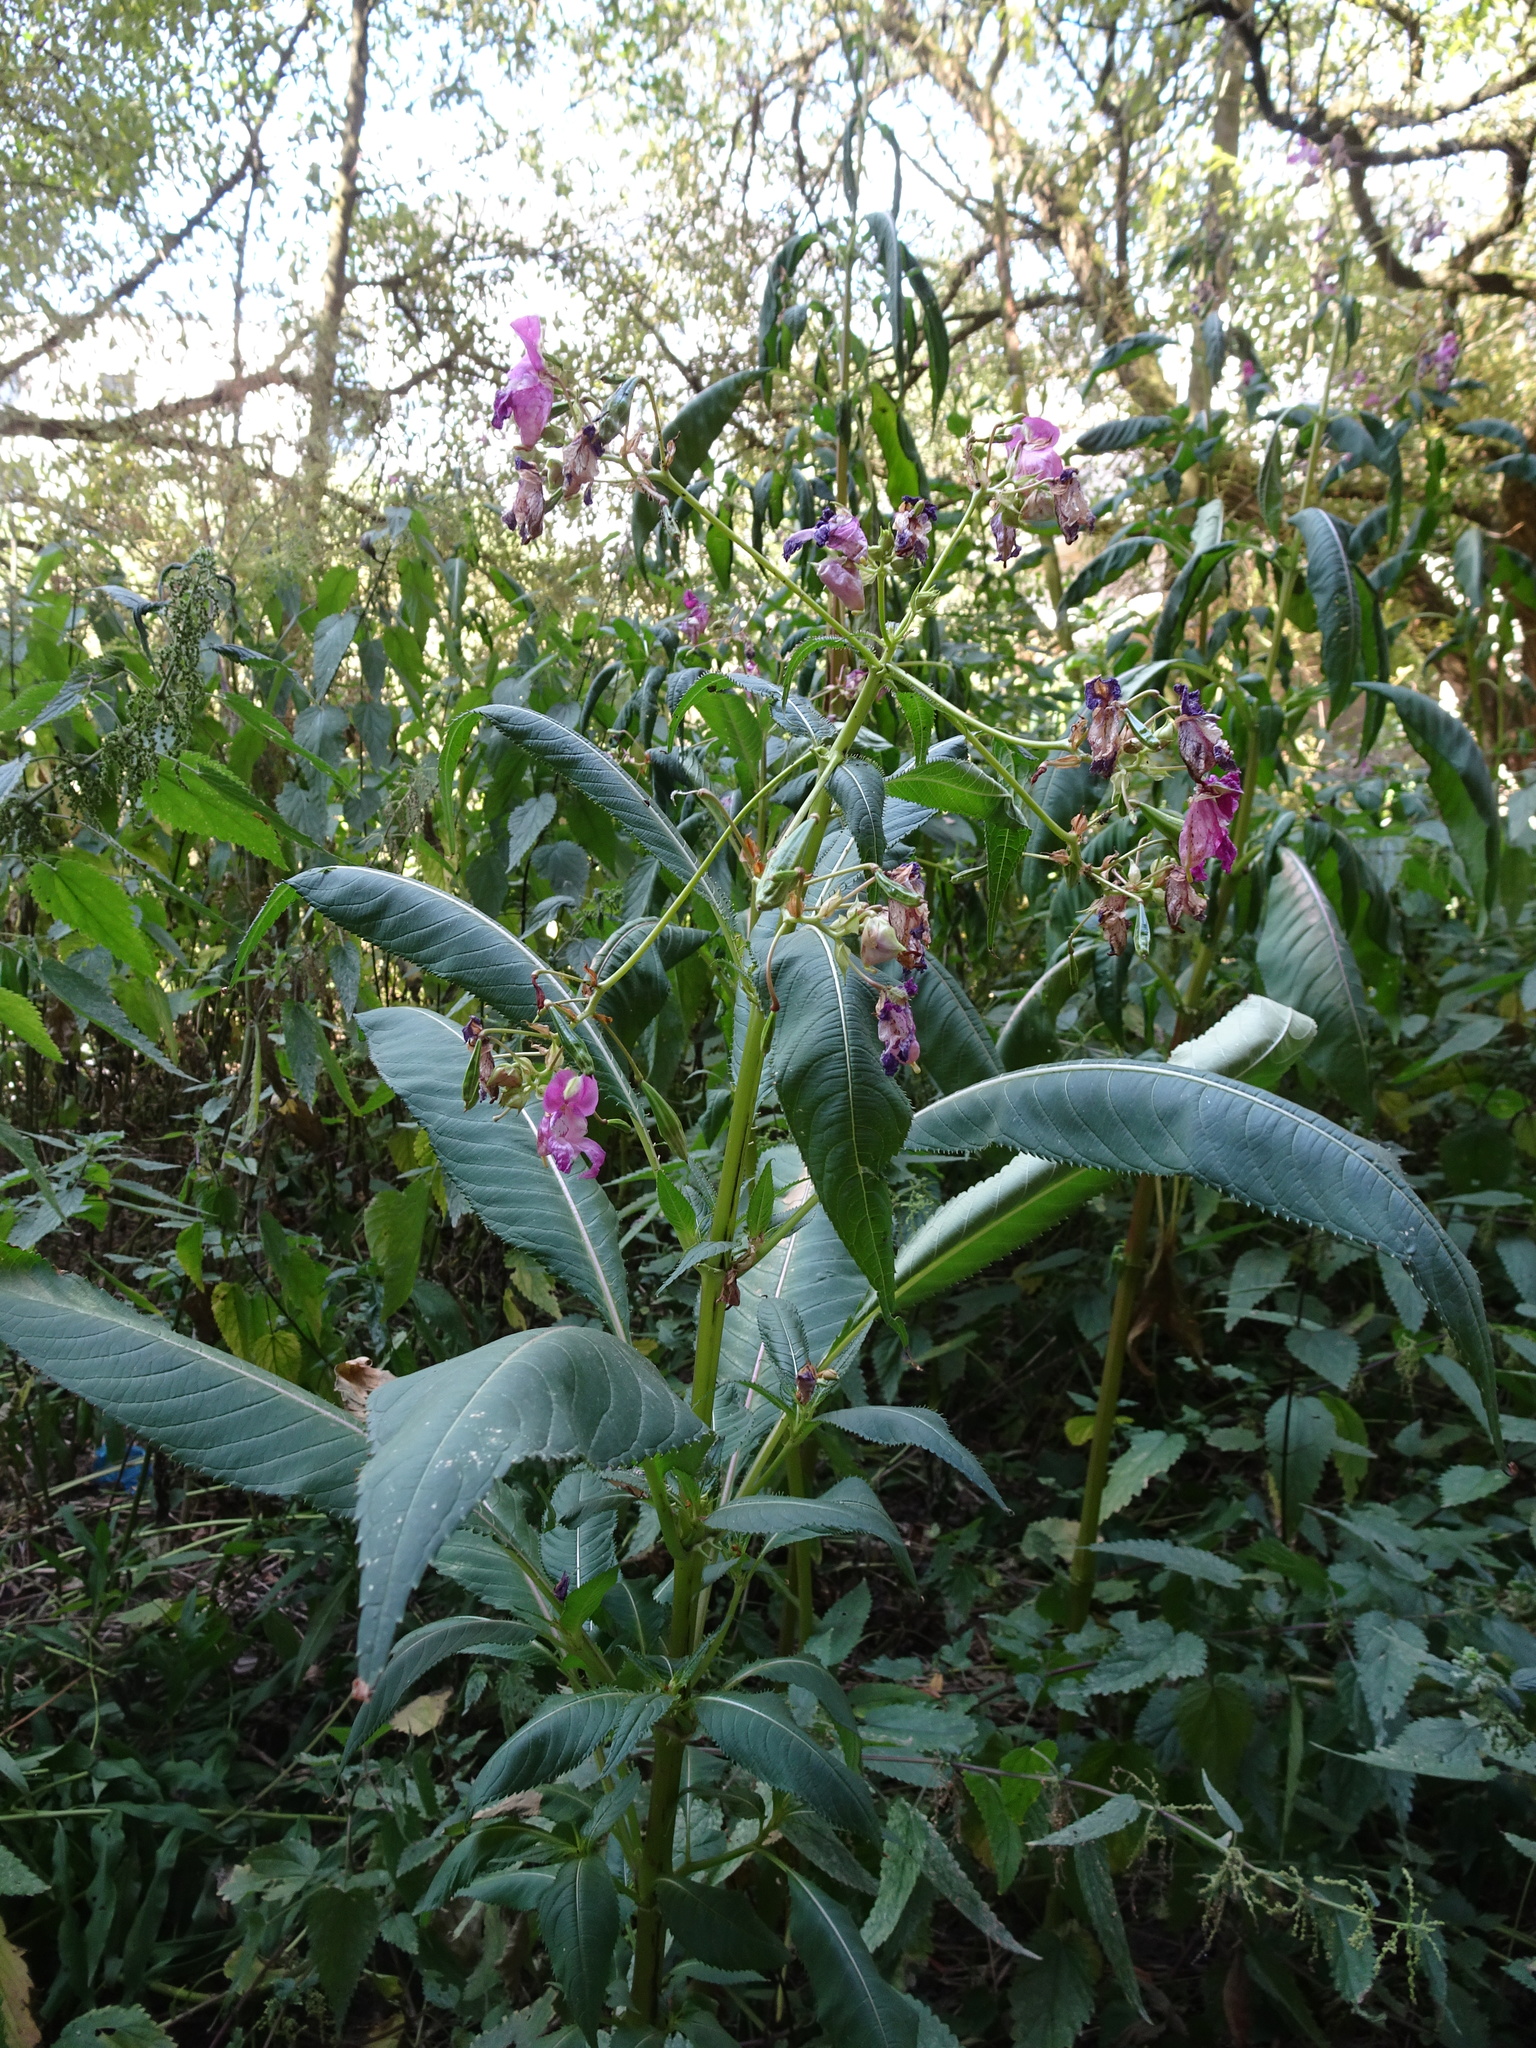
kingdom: Plantae
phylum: Tracheophyta
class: Magnoliopsida
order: Ericales
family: Balsaminaceae
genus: Impatiens
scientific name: Impatiens glandulifera
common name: Himalayan balsam
